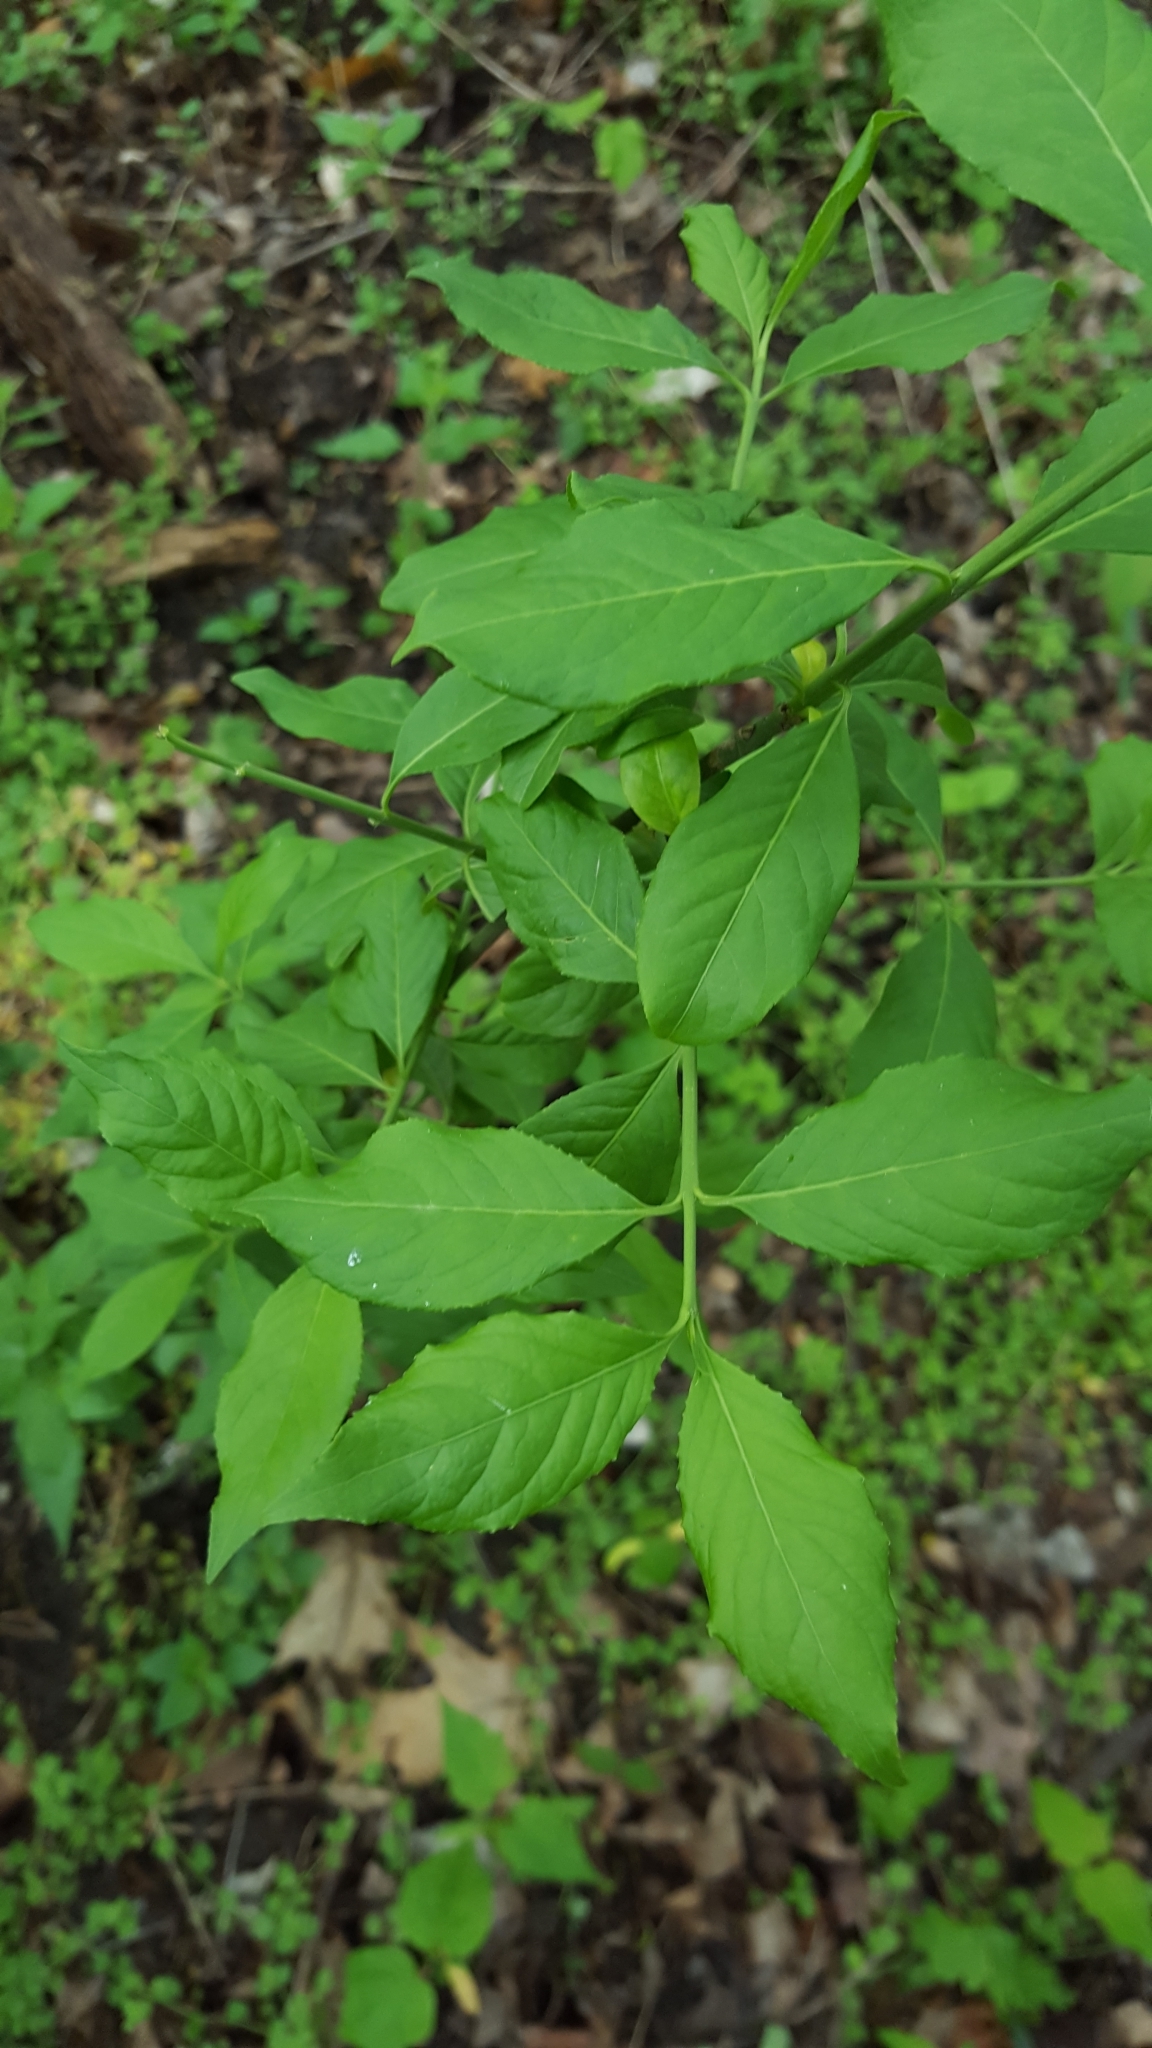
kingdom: Plantae
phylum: Tracheophyta
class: Magnoliopsida
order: Celastrales
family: Celastraceae
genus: Euonymus
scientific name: Euonymus europaeus
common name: Spindle
